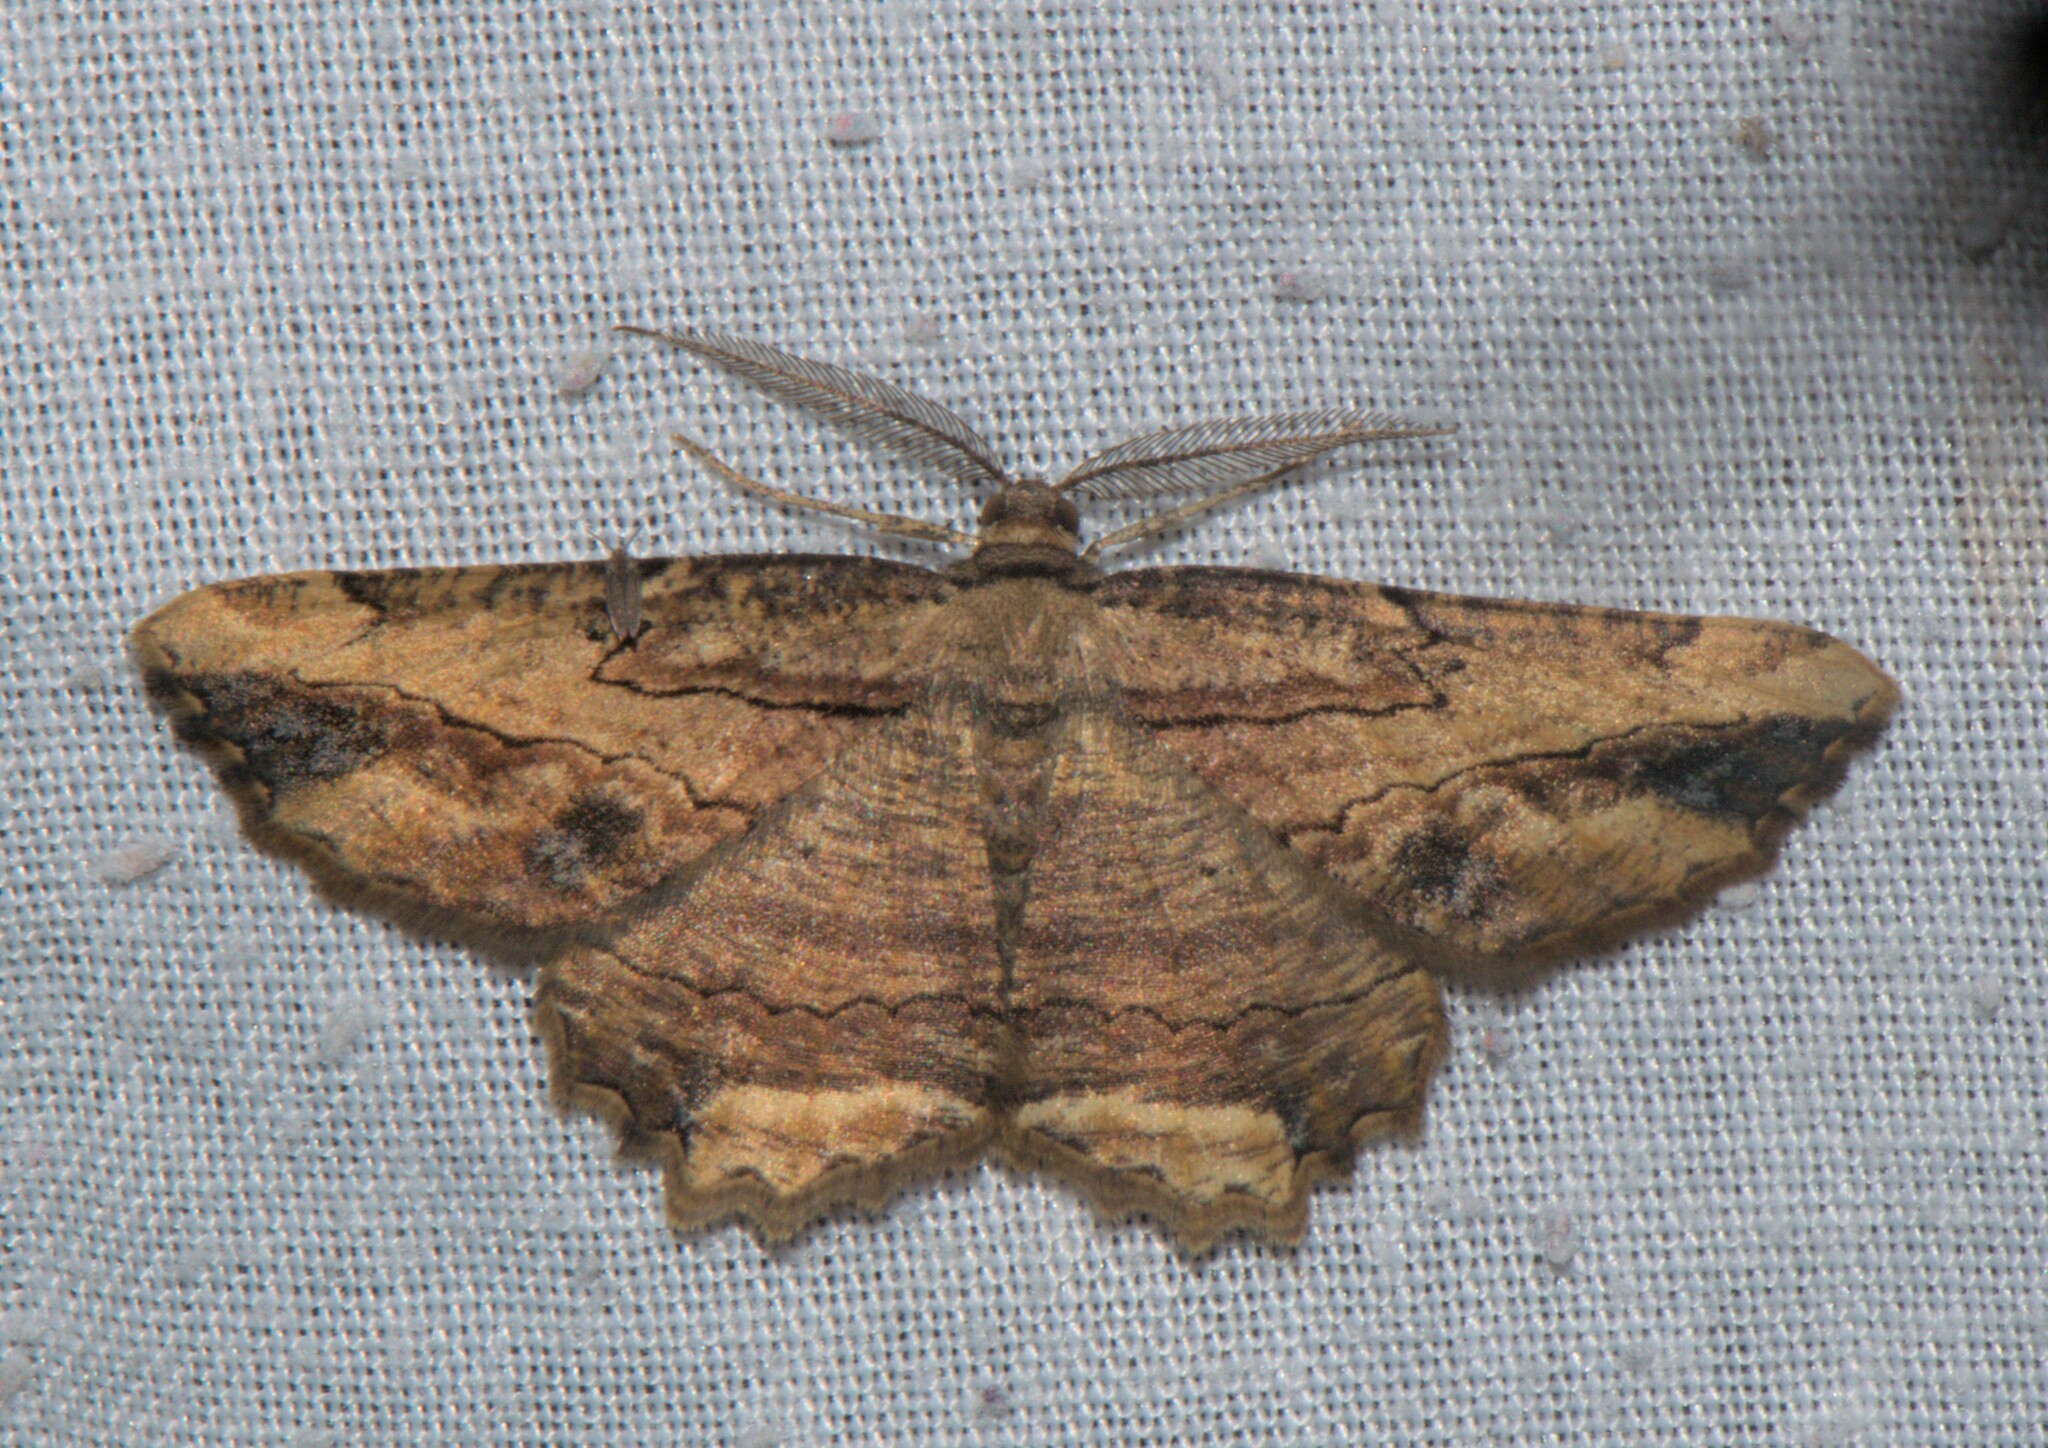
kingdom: Animalia
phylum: Arthropoda
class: Insecta
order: Lepidoptera
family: Geometridae
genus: Menophra
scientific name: Menophra serpentinaria
